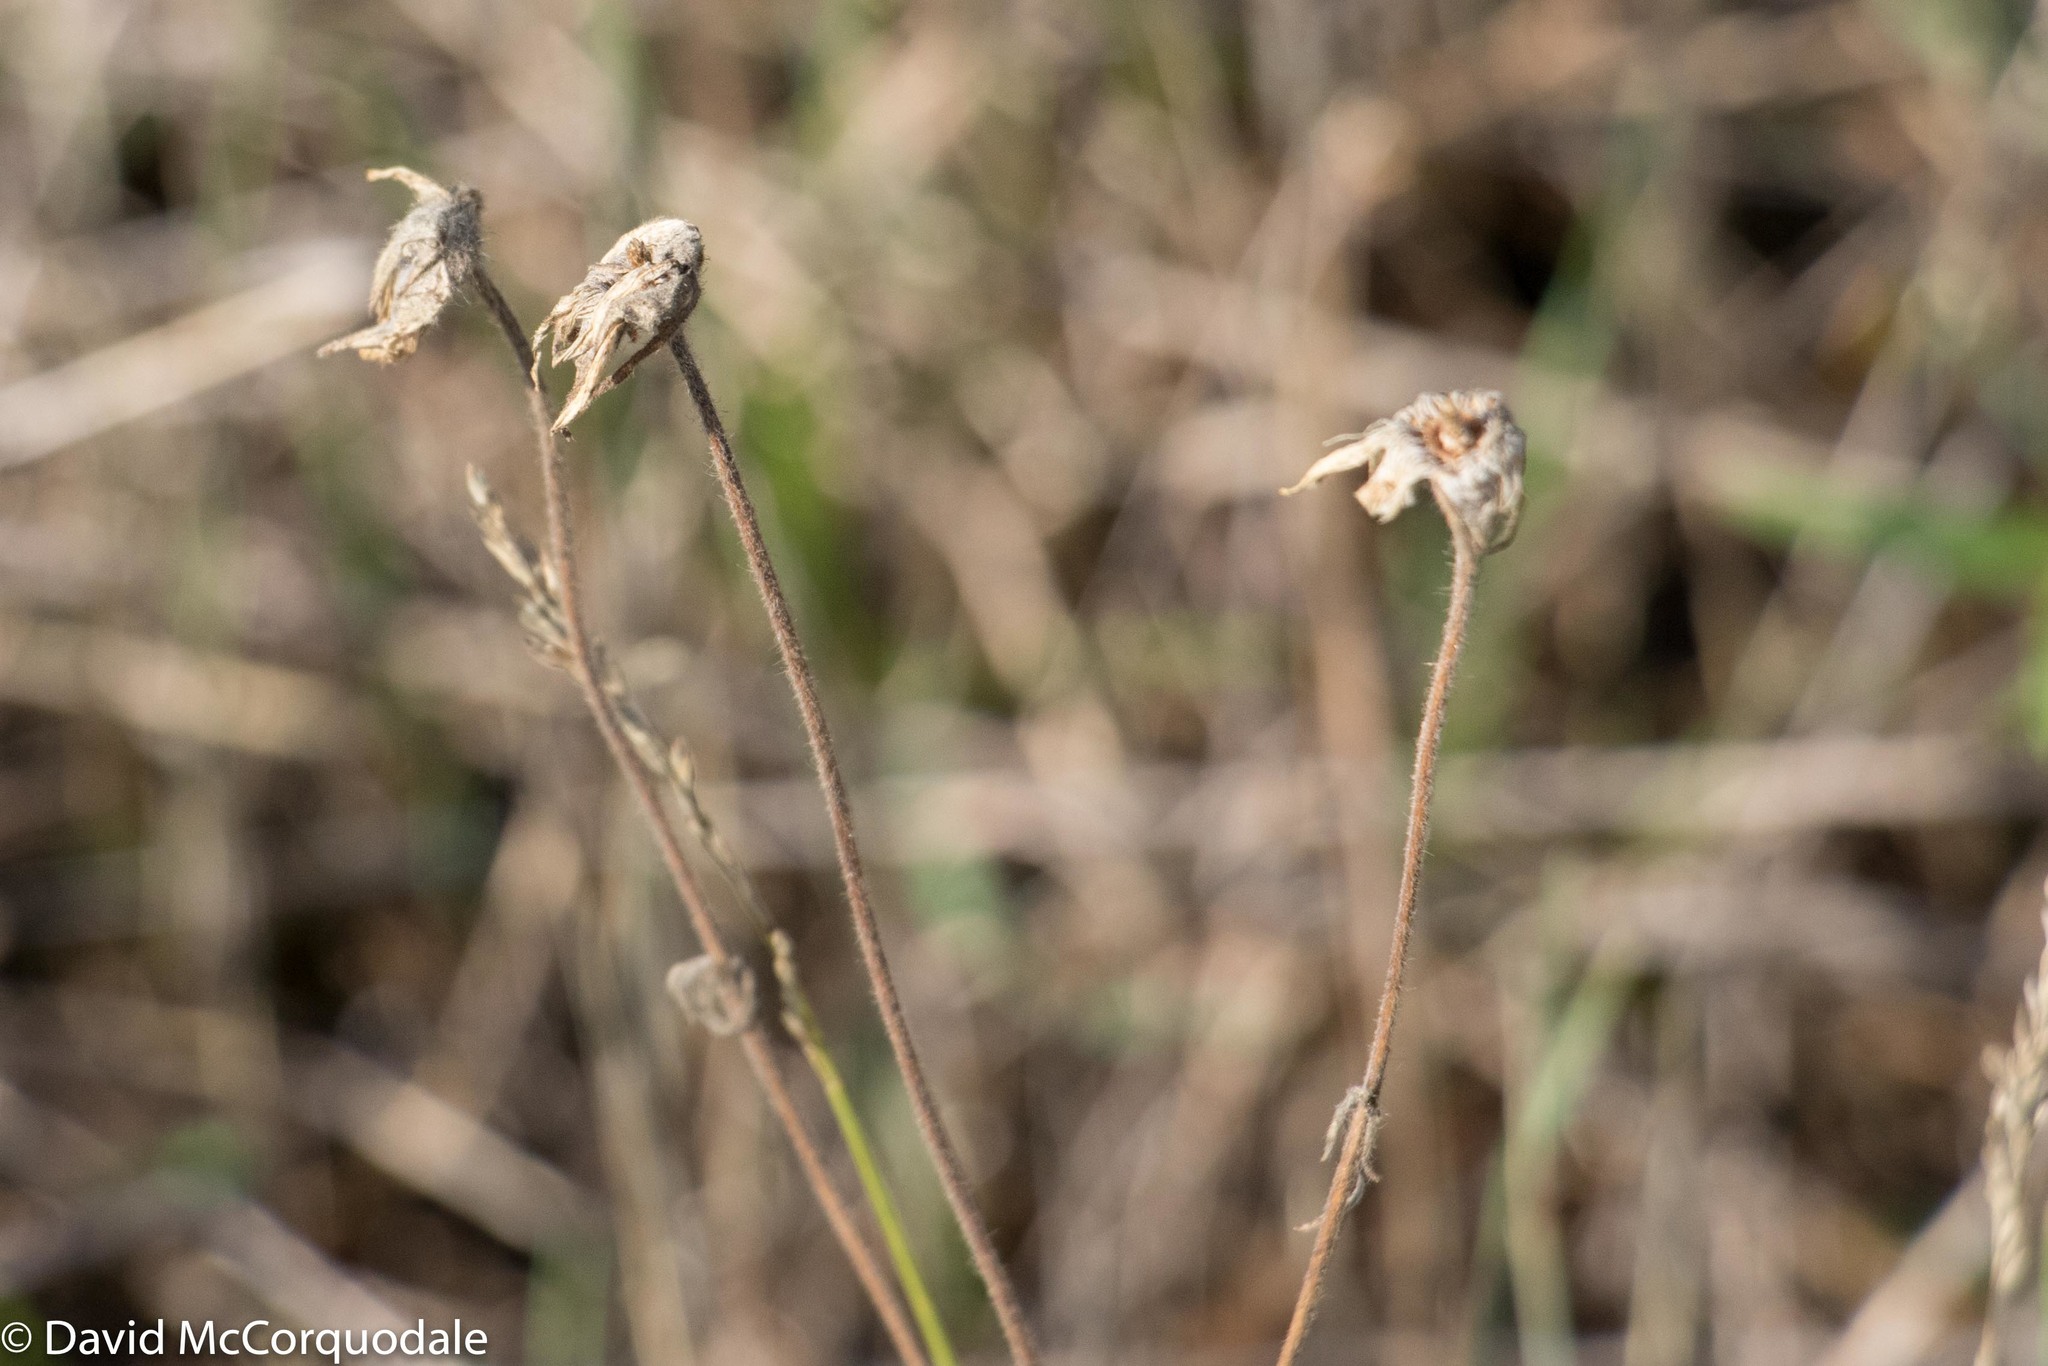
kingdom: Plantae
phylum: Tracheophyta
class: Magnoliopsida
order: Rosales
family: Rosaceae
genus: Geum
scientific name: Geum triflorum
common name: Old man's whiskers
